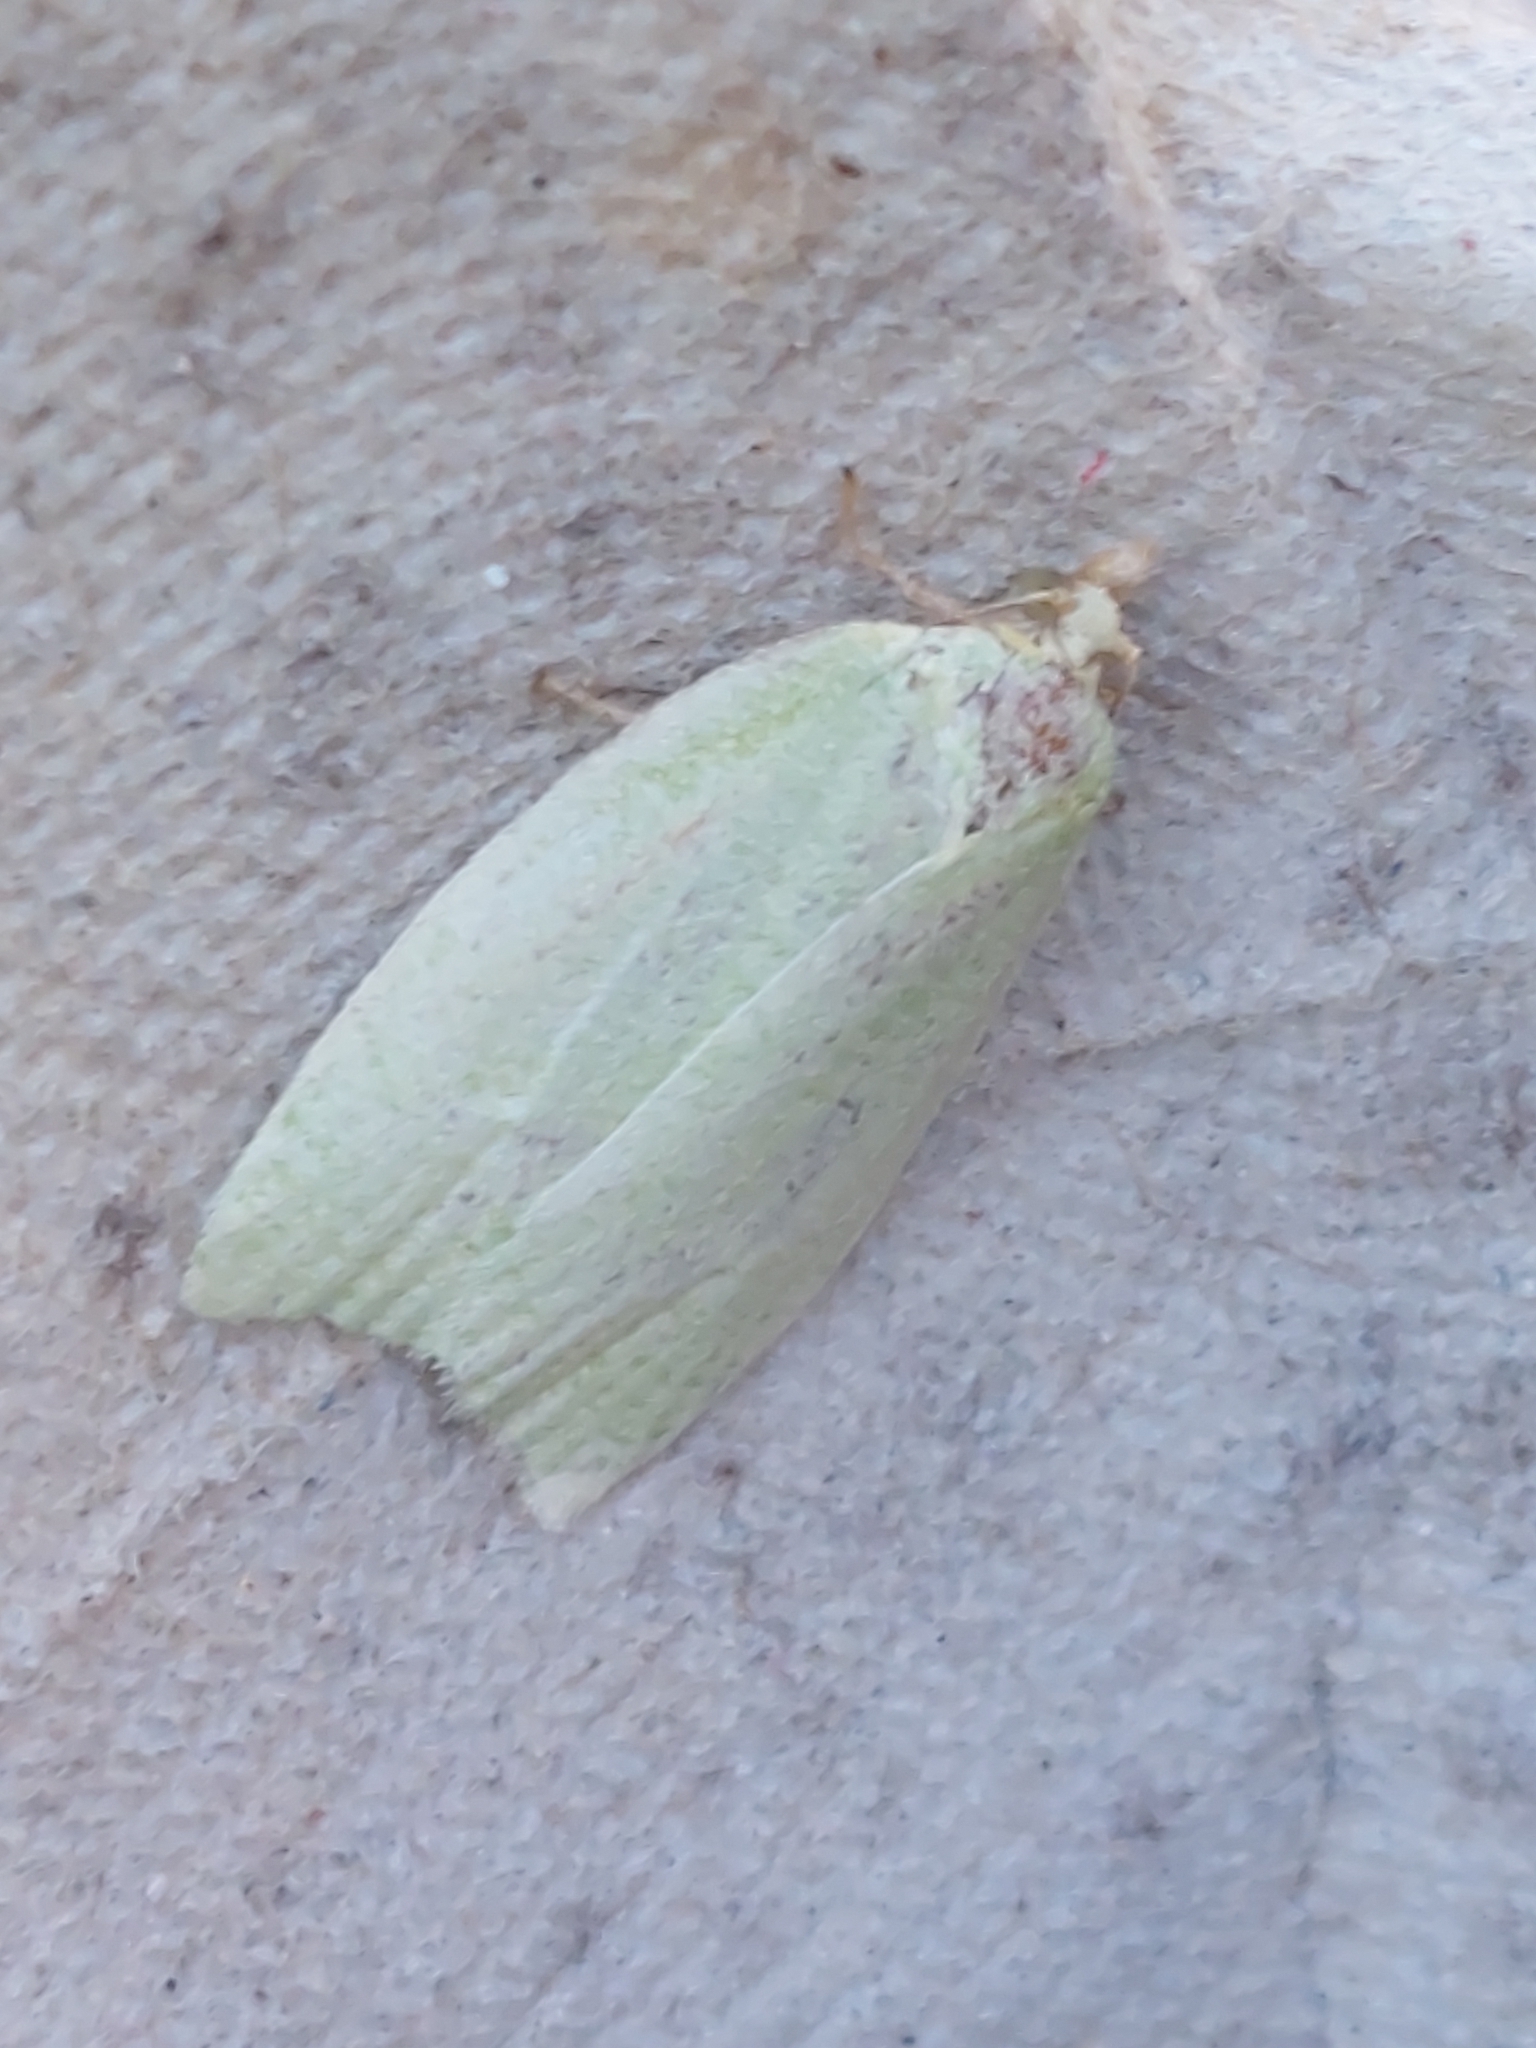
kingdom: Animalia
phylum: Arthropoda
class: Insecta
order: Lepidoptera
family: Tortricidae
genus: Tortrix
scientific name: Tortrix viridana
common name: Green oak tortrix
